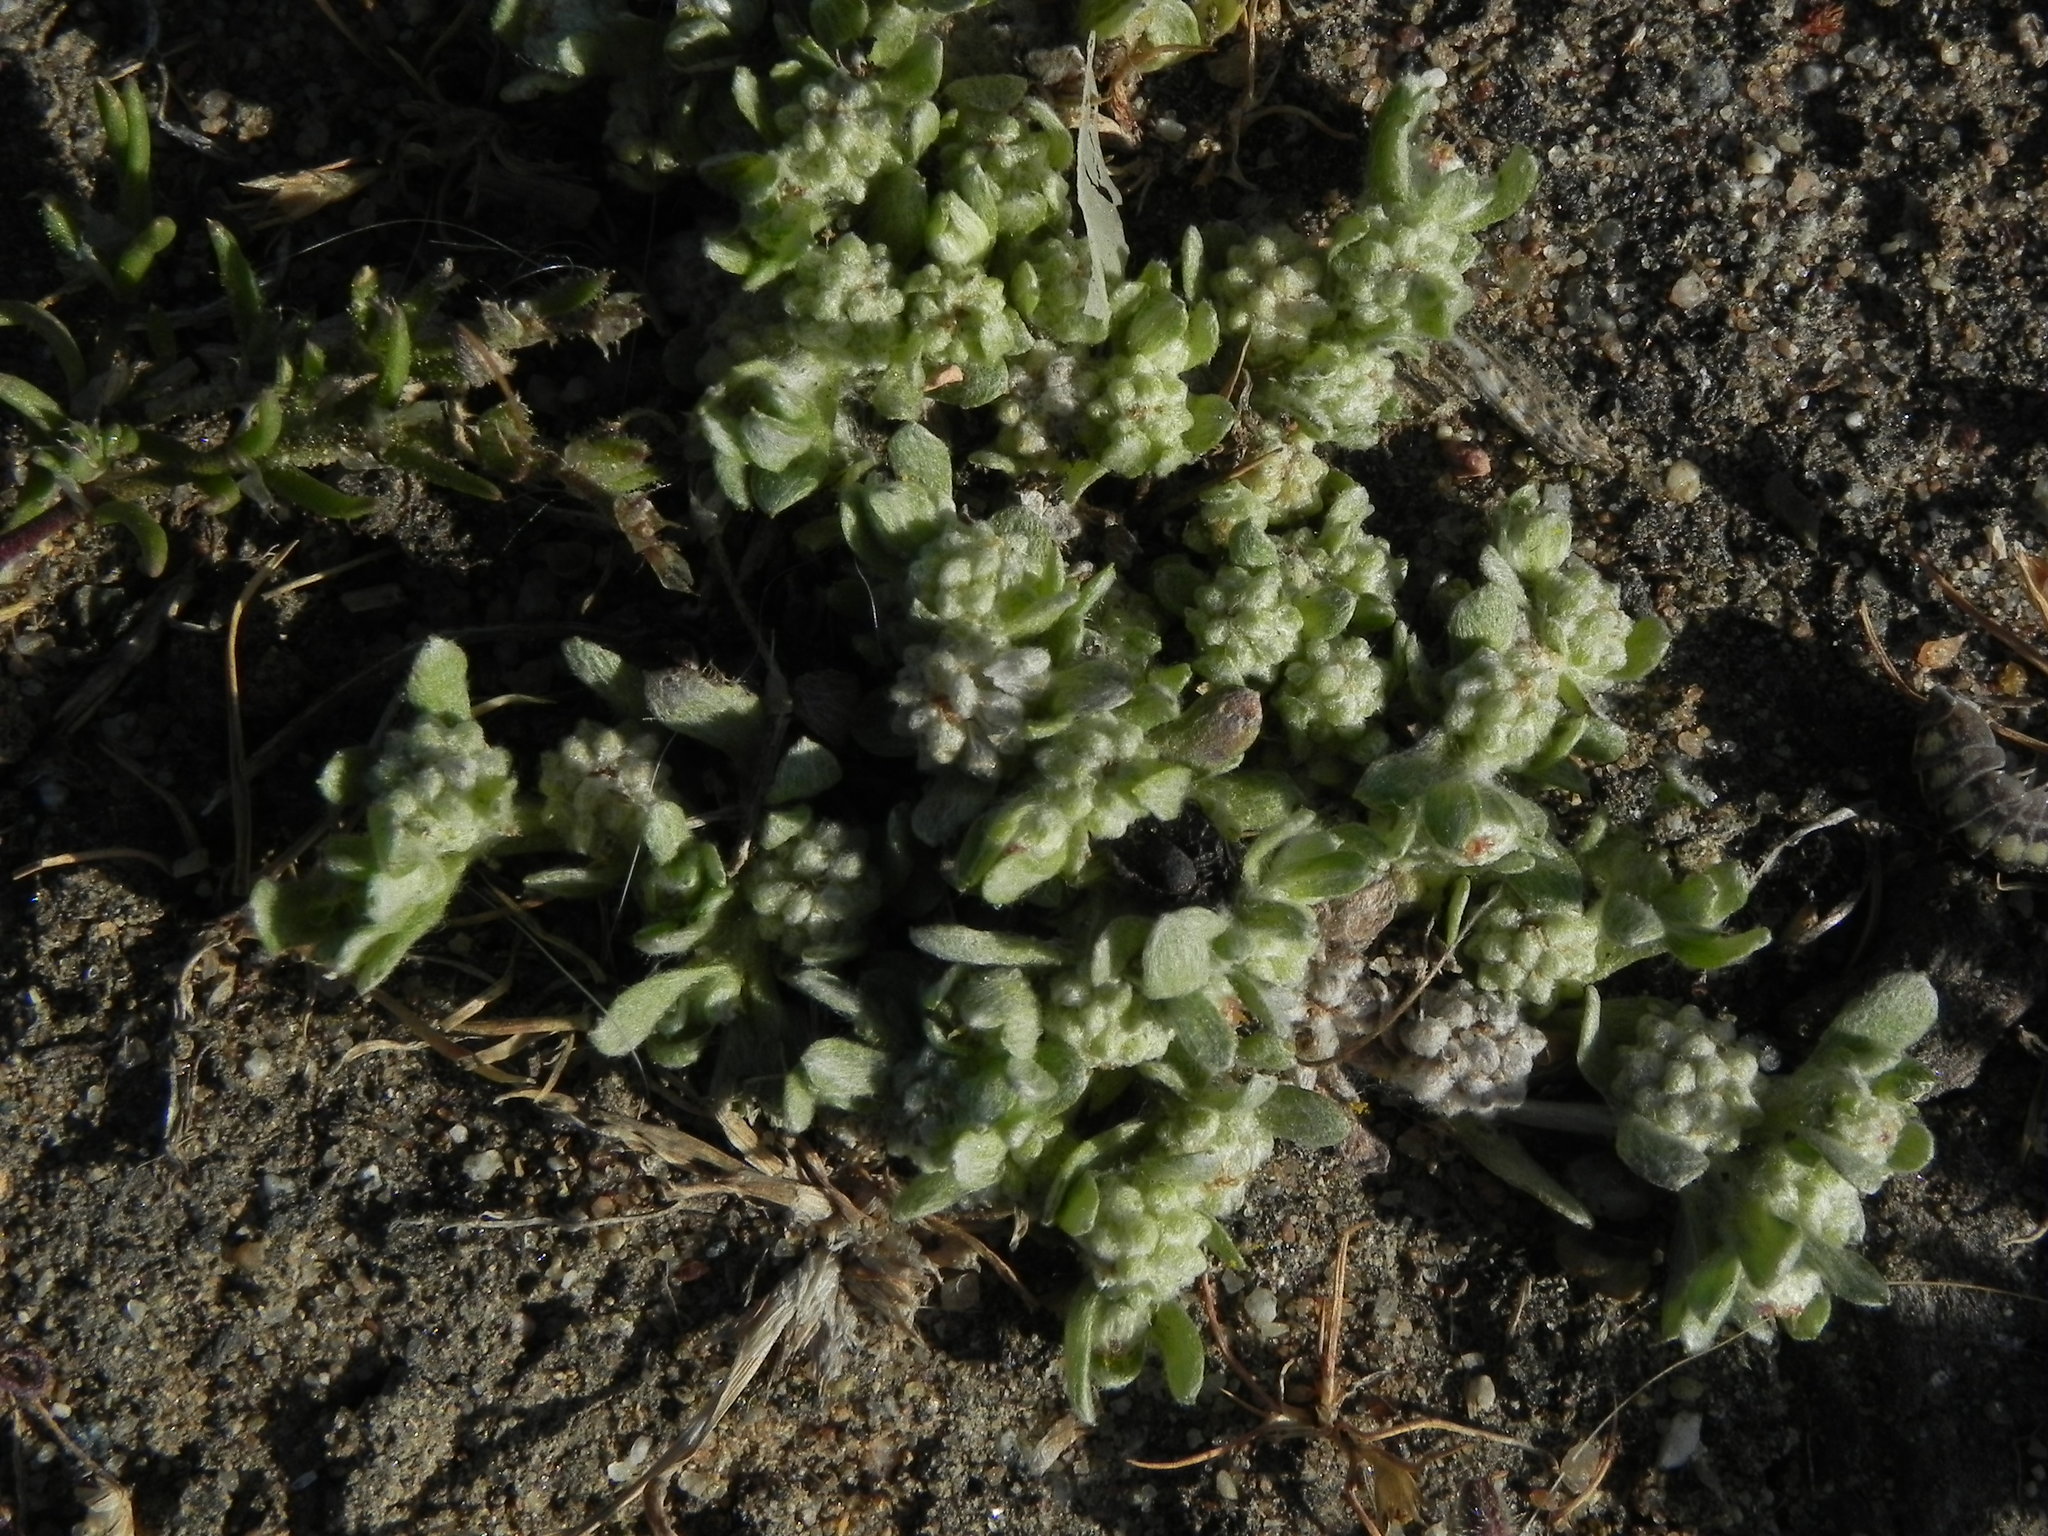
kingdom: Plantae
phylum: Tracheophyta
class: Magnoliopsida
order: Asterales
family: Asteraceae
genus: Psilocarphus
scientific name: Psilocarphus tenellus
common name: Slender woolly-marbles
